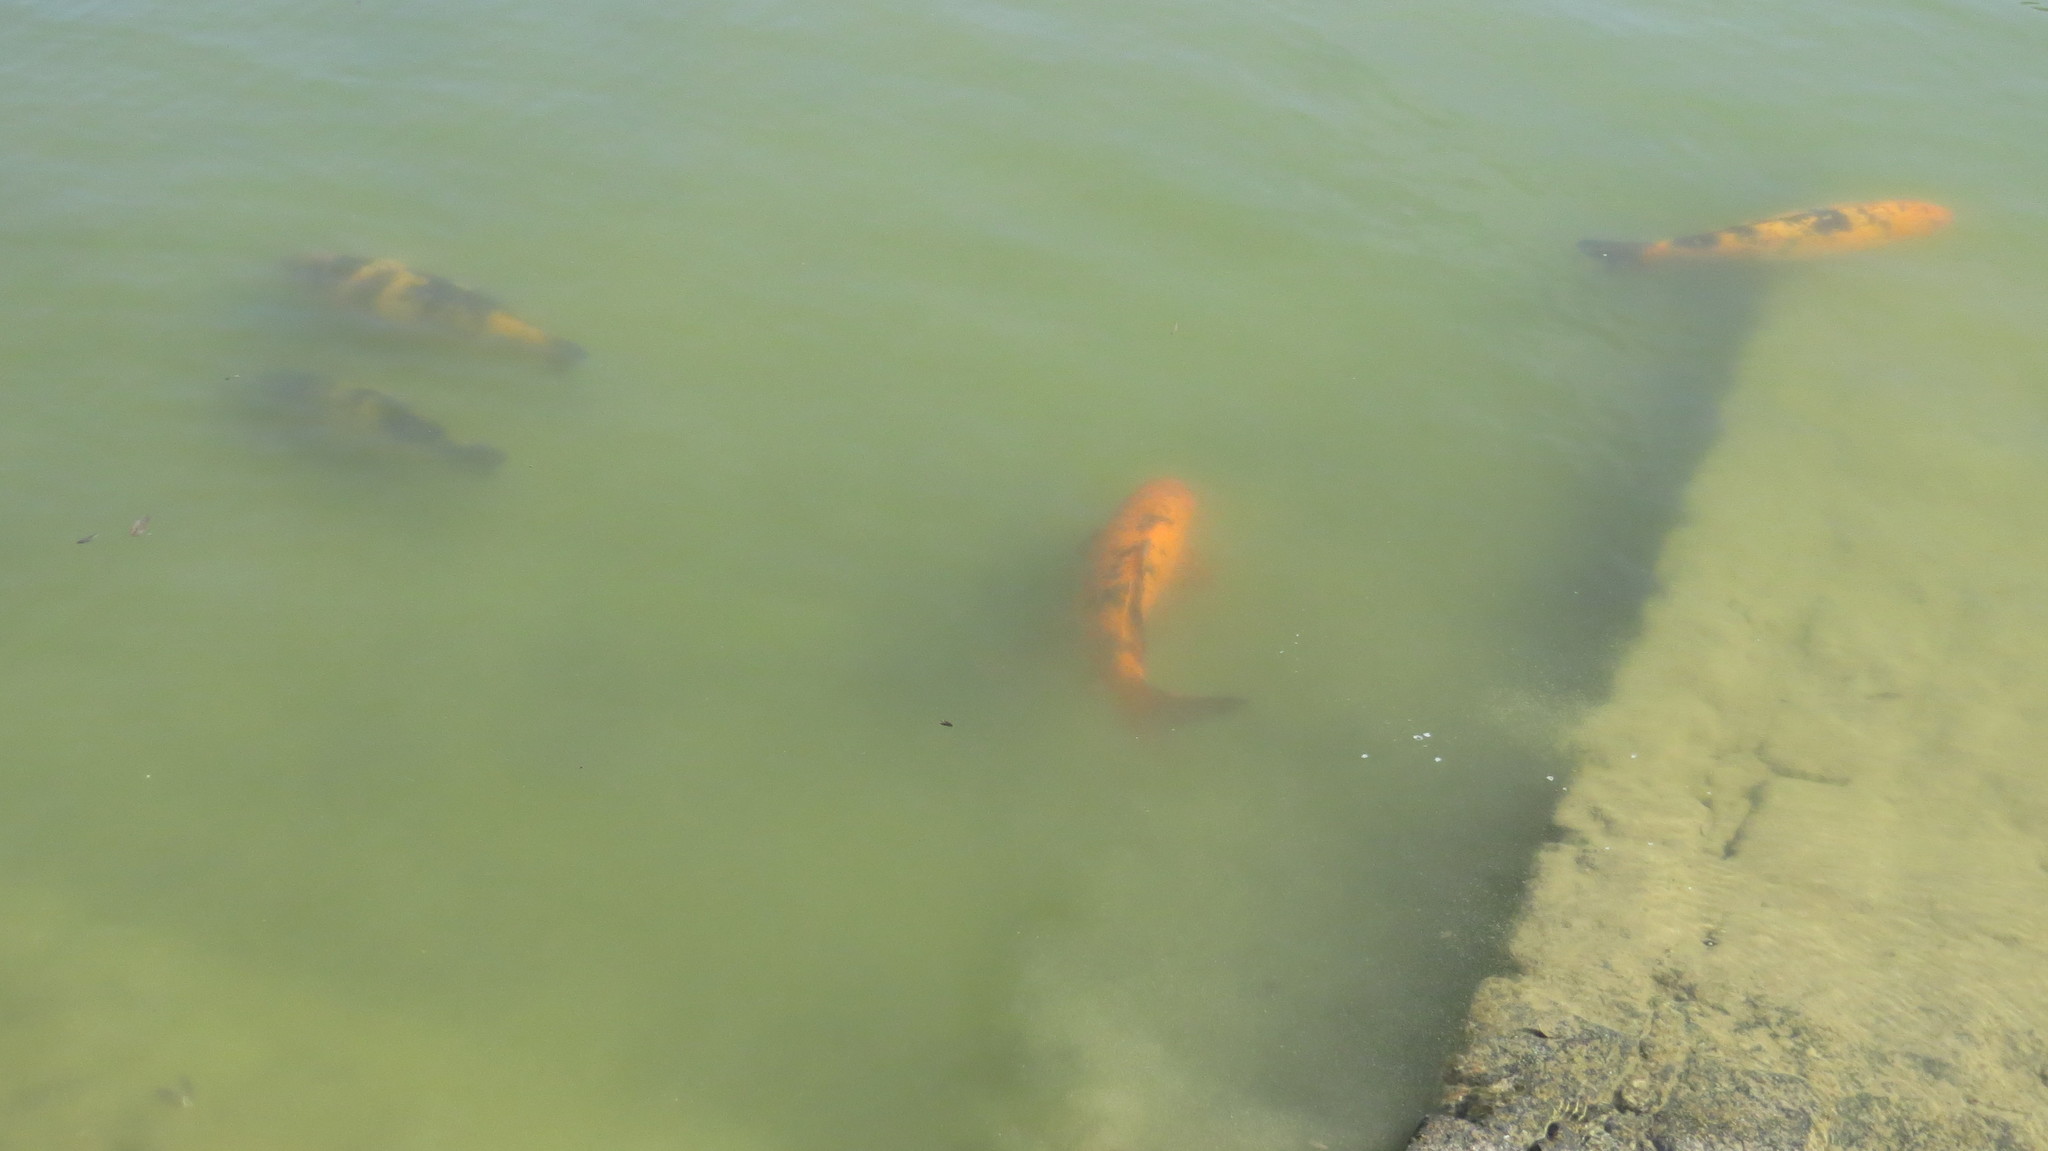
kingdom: Animalia
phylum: Chordata
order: Cypriniformes
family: Cyprinidae
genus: Cyprinus
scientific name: Cyprinus rubrofuscus
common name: Koi
